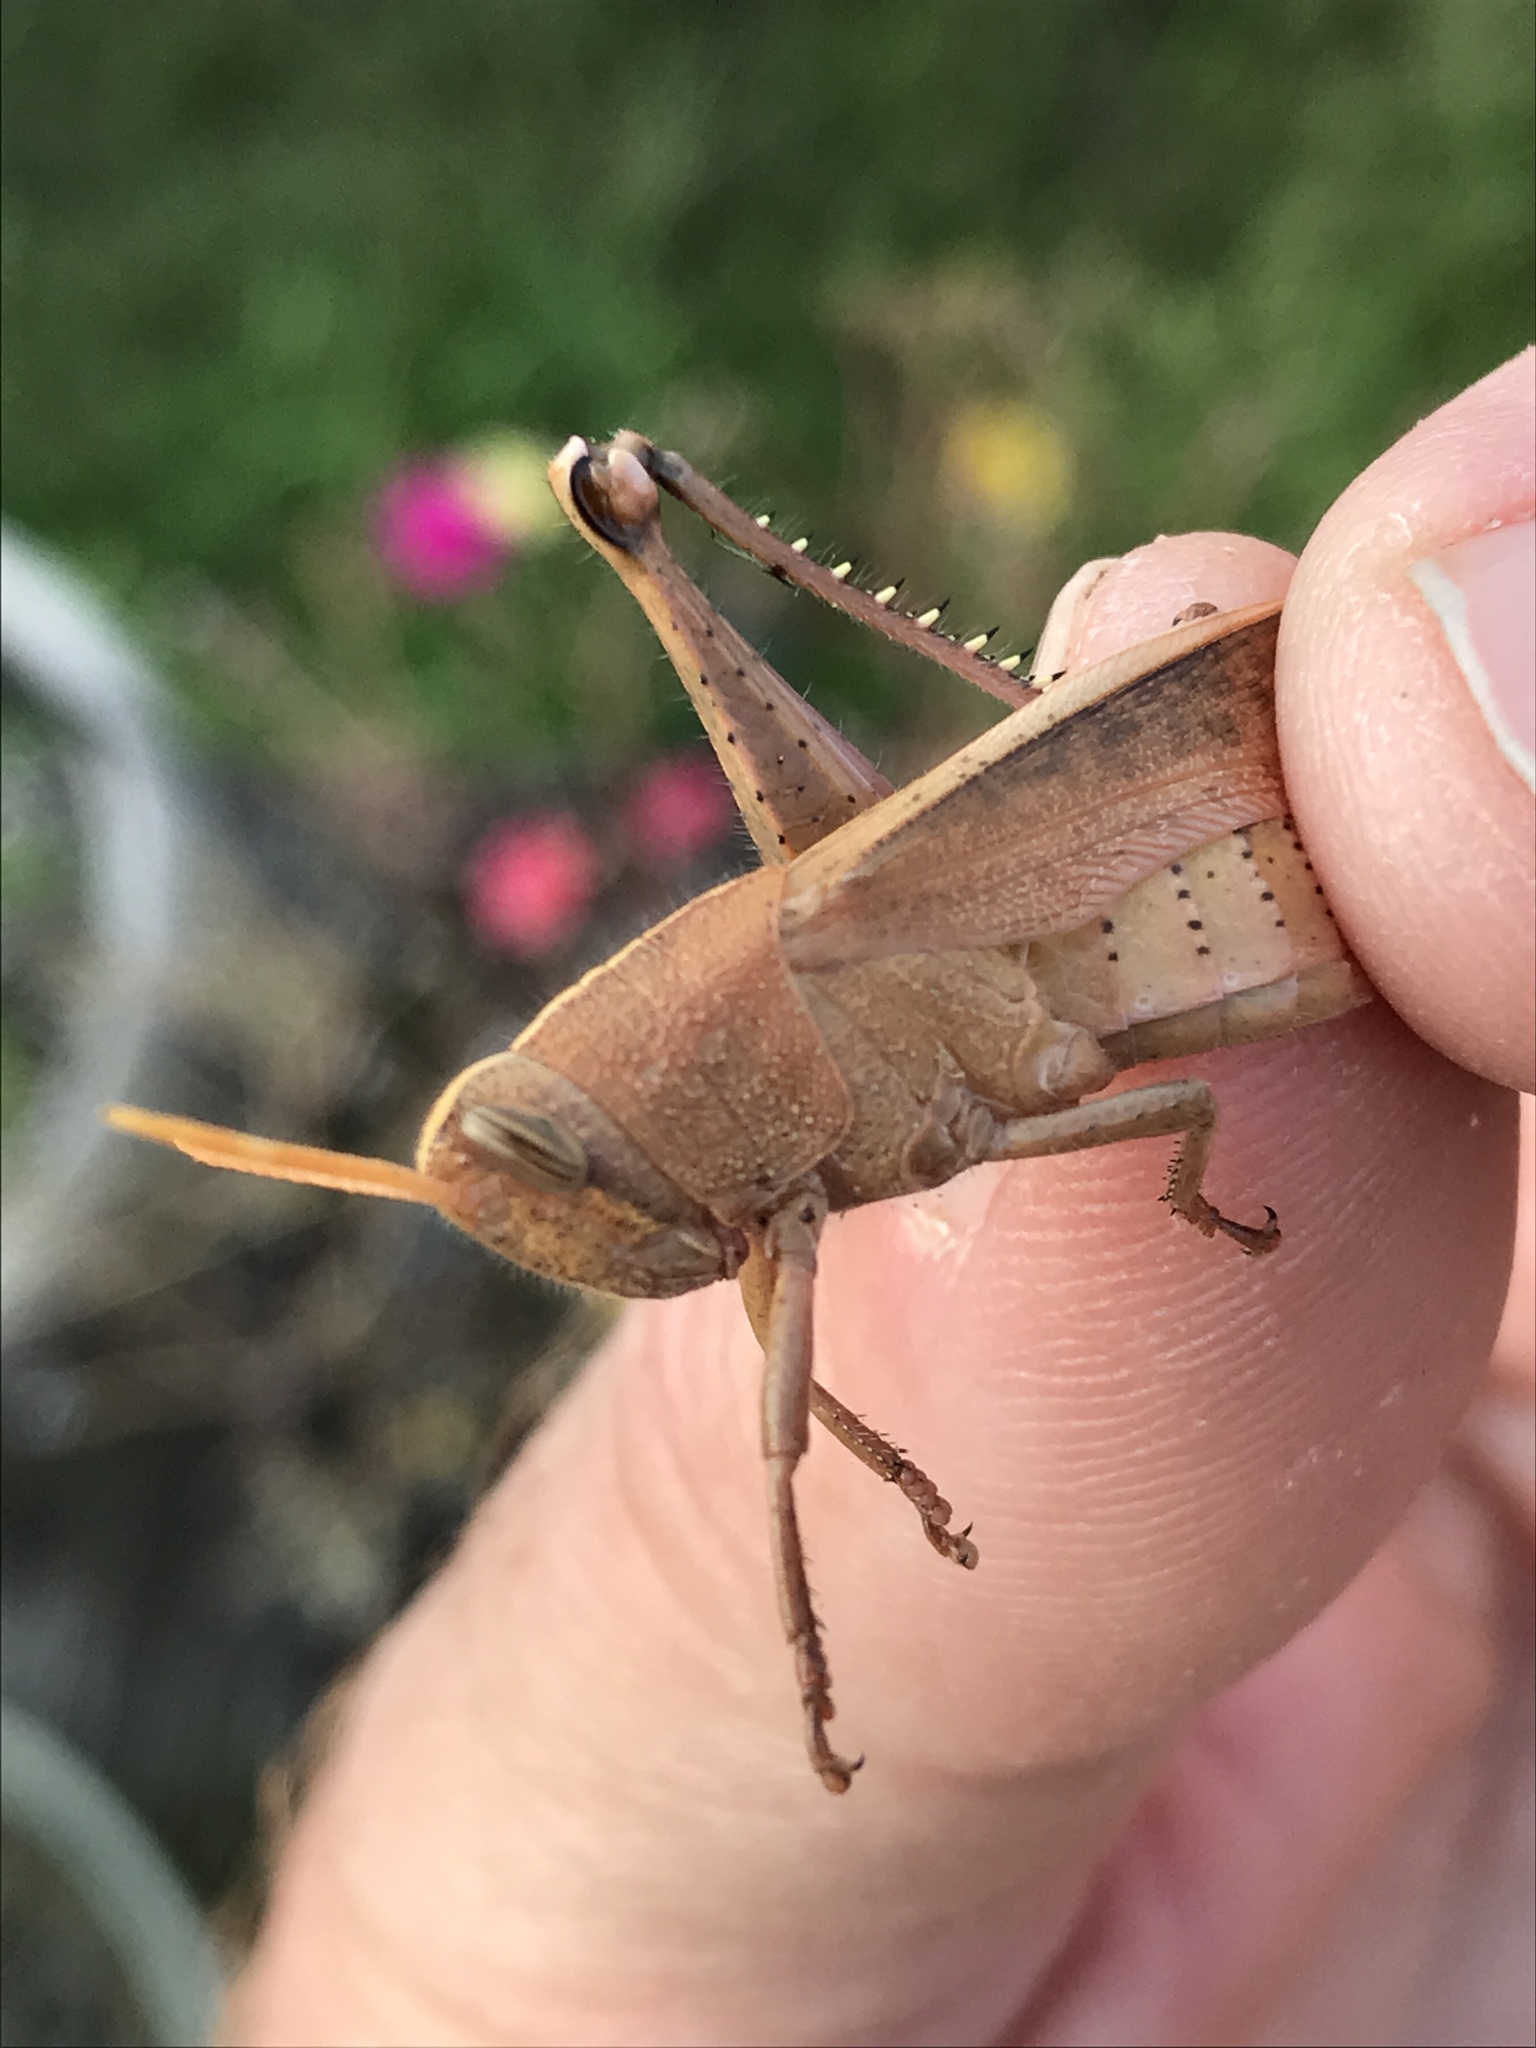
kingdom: Animalia
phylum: Arthropoda
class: Insecta
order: Orthoptera
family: Acrididae
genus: Schistocerca
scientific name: Schistocerca damnifica
